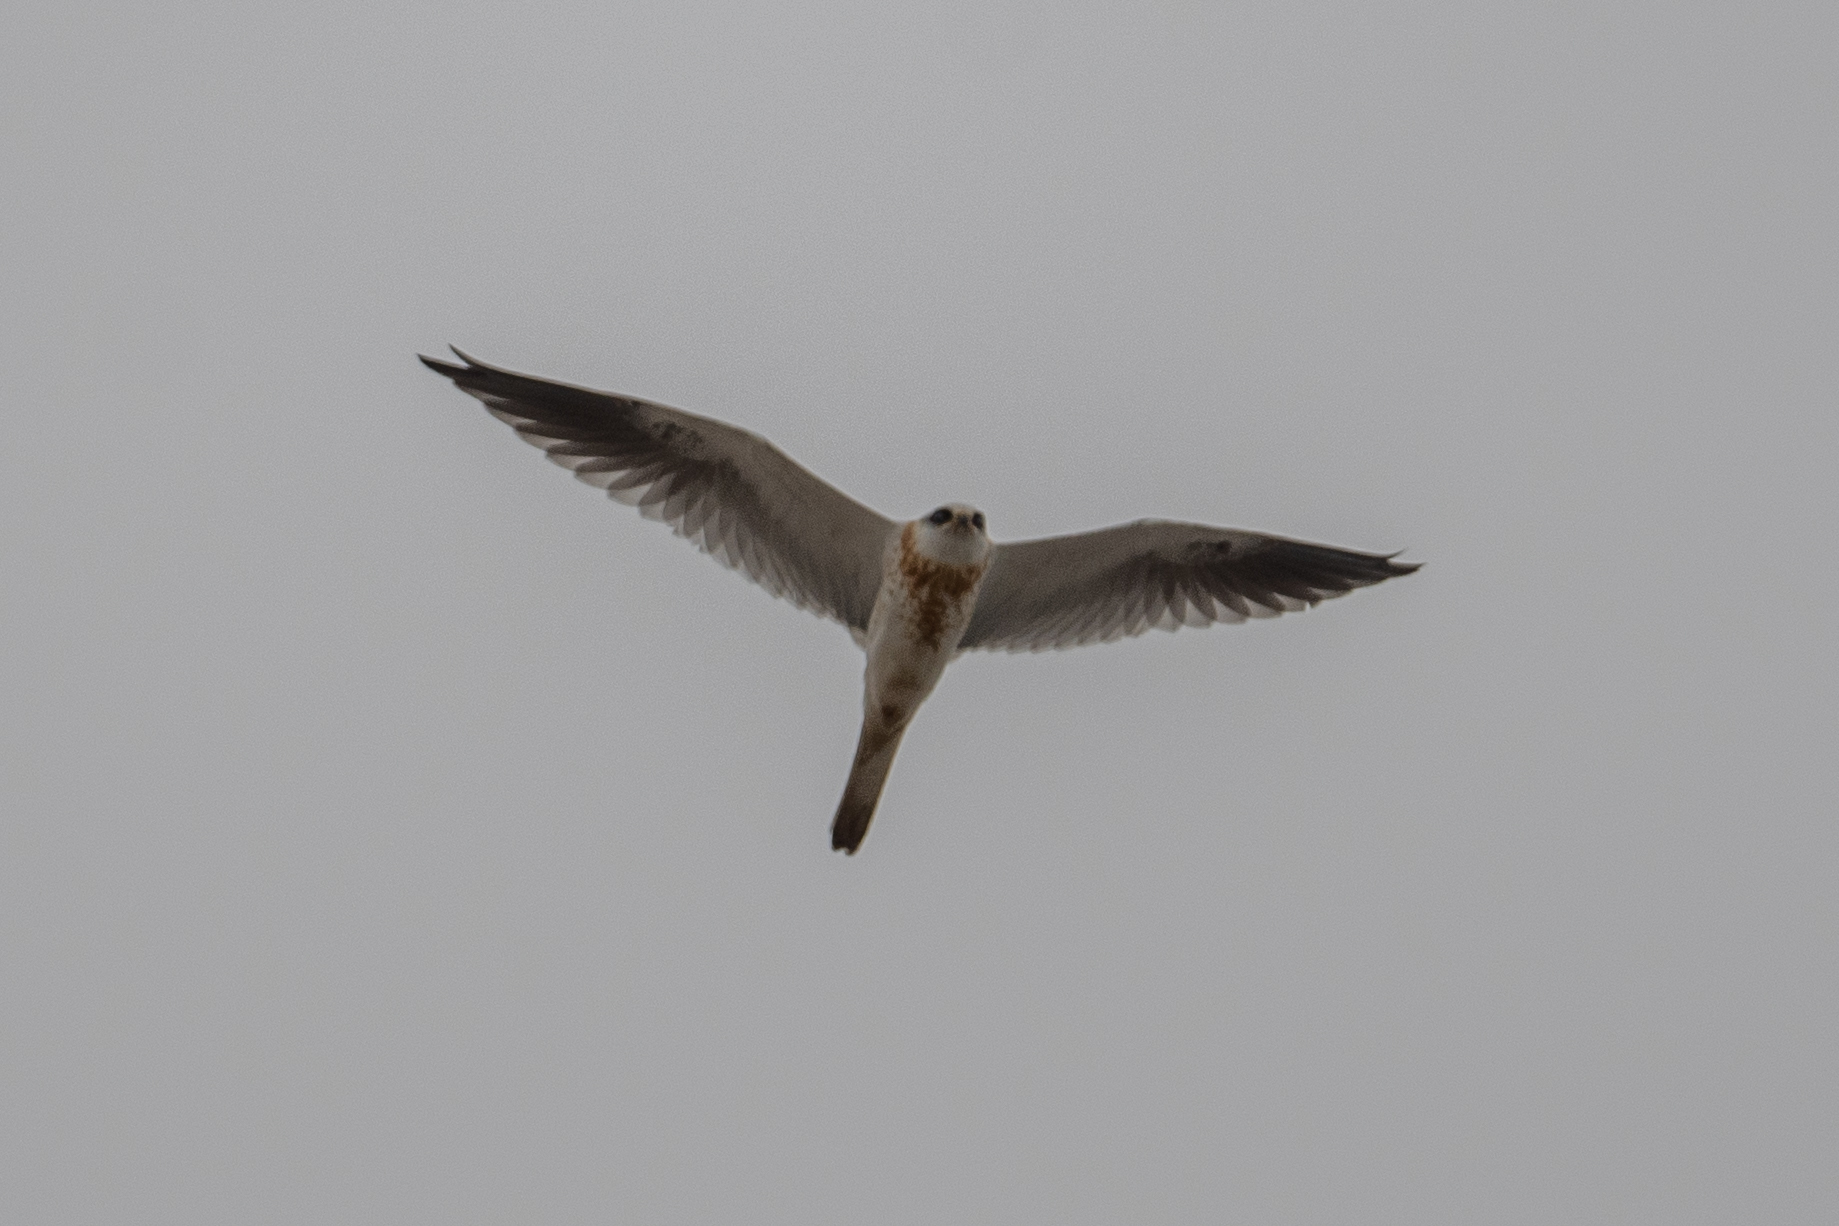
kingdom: Animalia
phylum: Chordata
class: Aves
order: Accipitriformes
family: Accipitridae
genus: Elanus
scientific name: Elanus leucurus
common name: White-tailed kite
